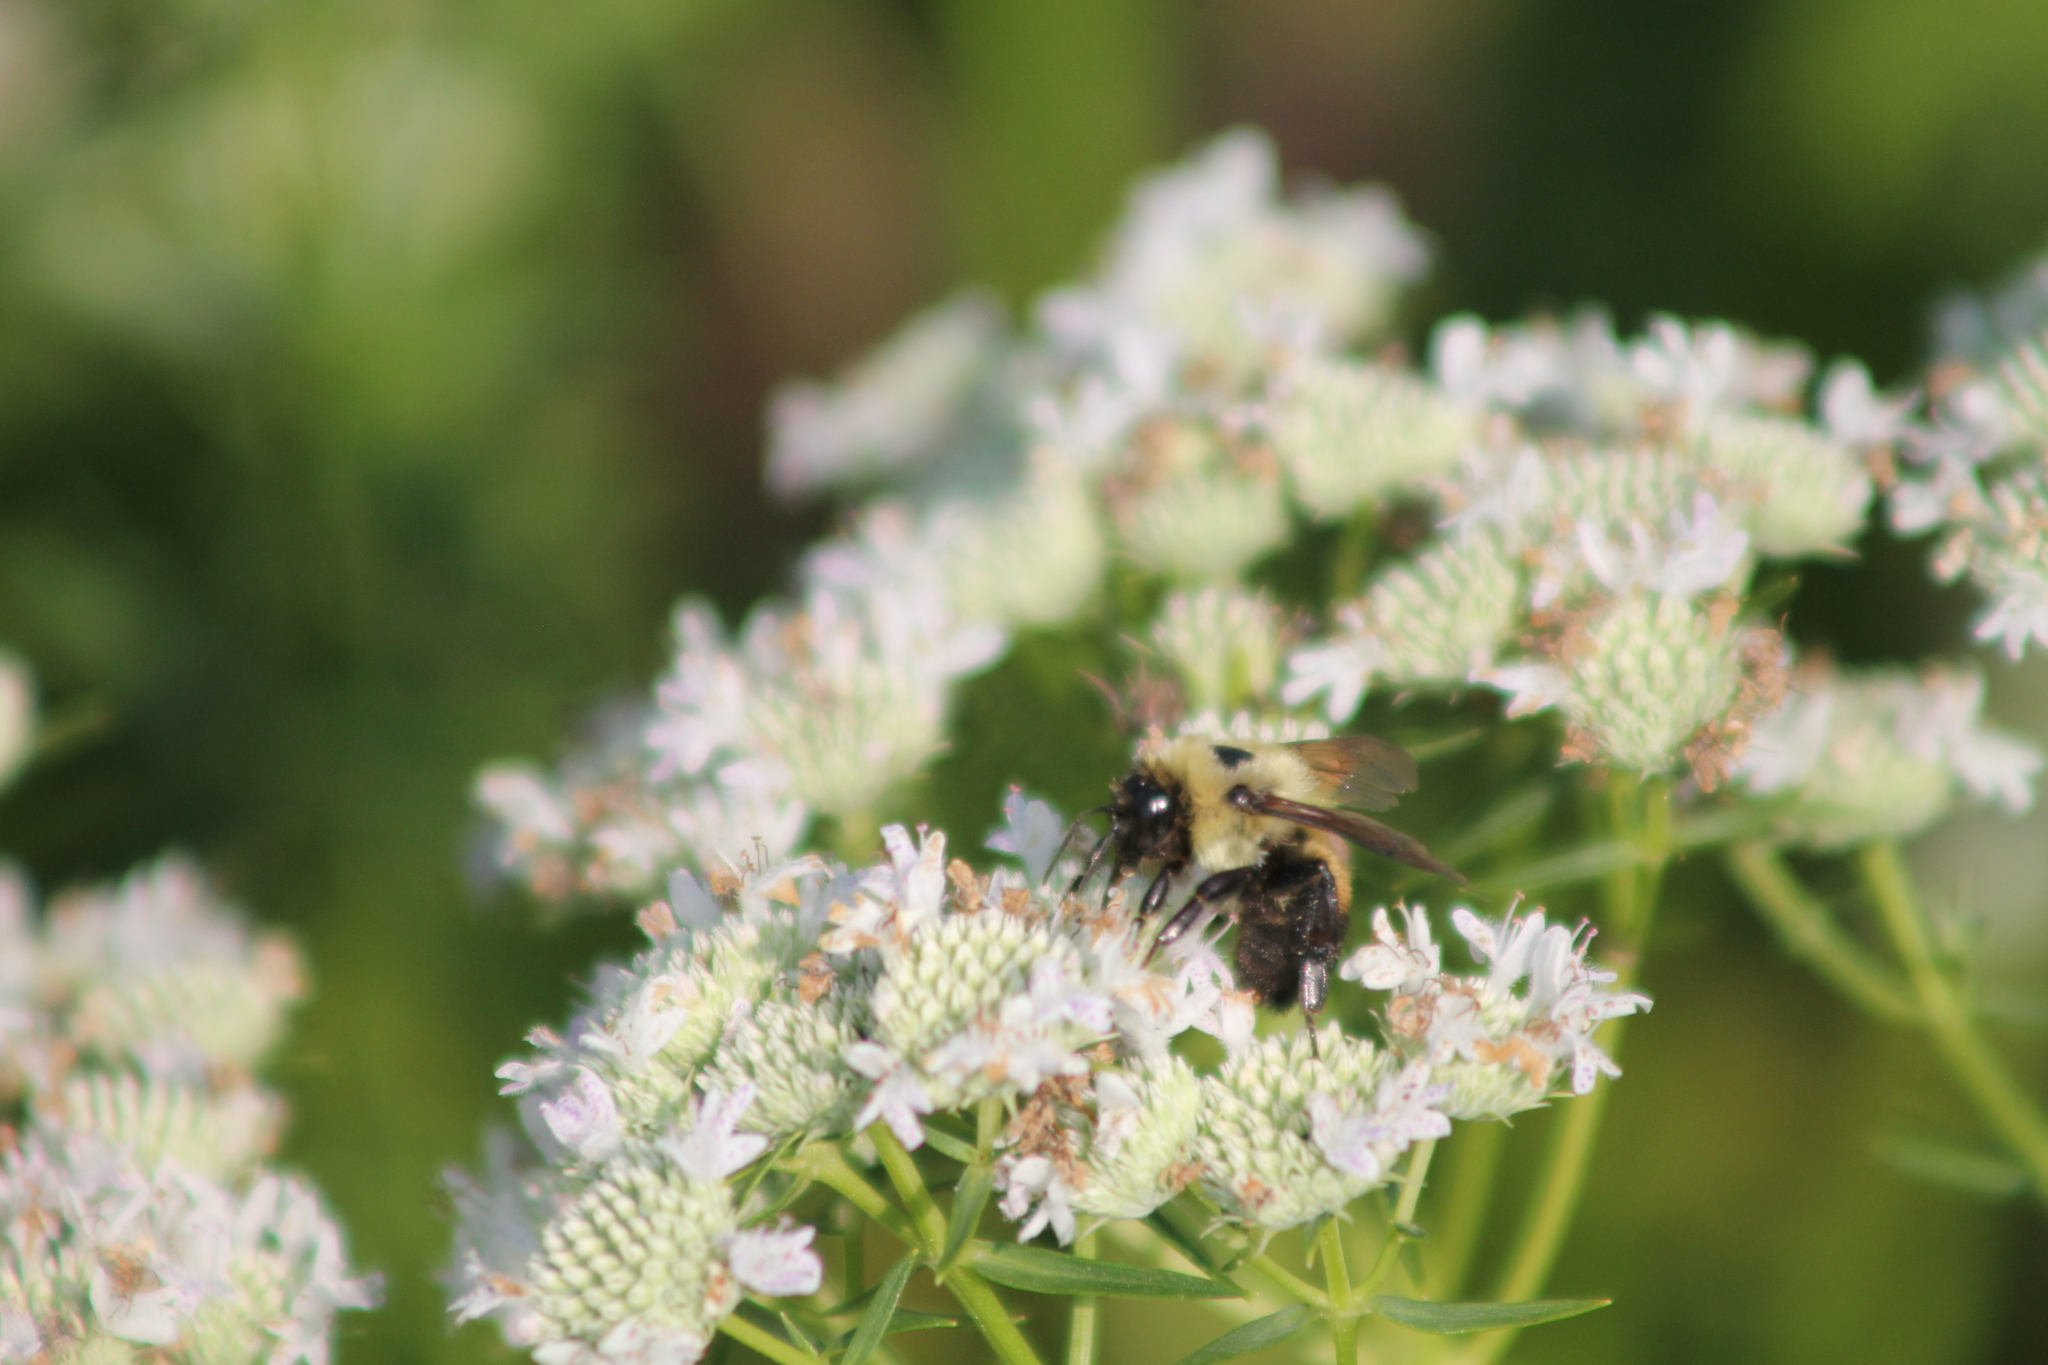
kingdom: Animalia
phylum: Arthropoda
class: Insecta
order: Hymenoptera
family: Apidae
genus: Bombus
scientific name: Bombus griseocollis
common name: Brown-belted bumble bee
